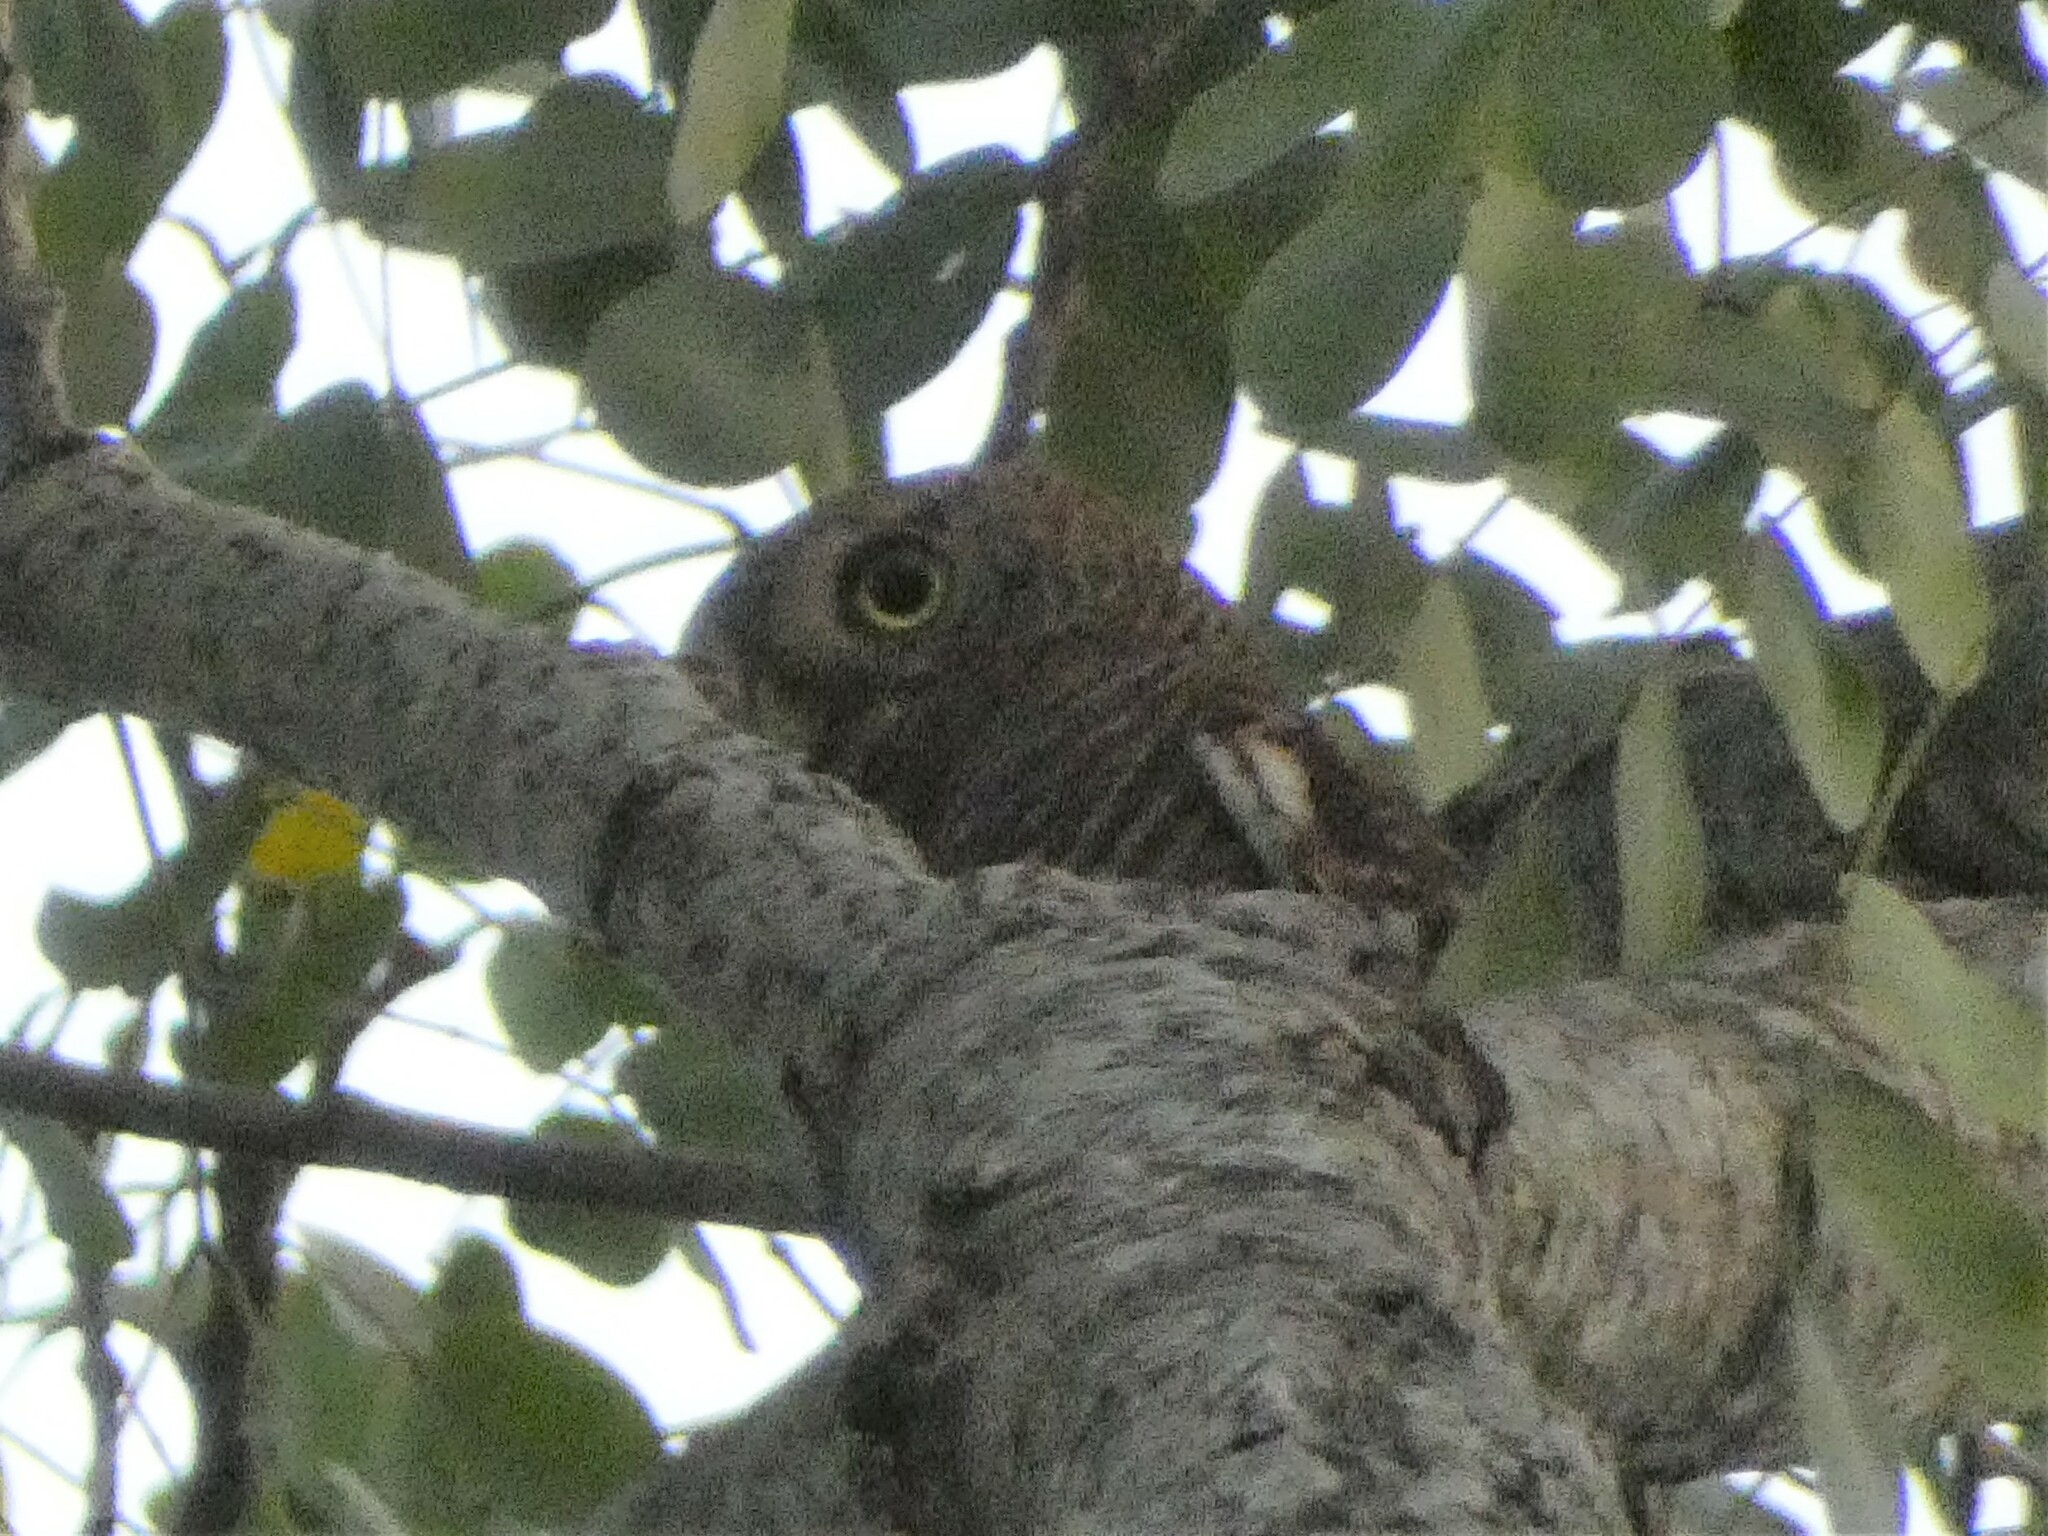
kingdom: Animalia
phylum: Chordata
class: Aves
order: Strigiformes
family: Strigidae
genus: Glaucidium
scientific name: Glaucidium cuculoides
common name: Asian barred owlet
